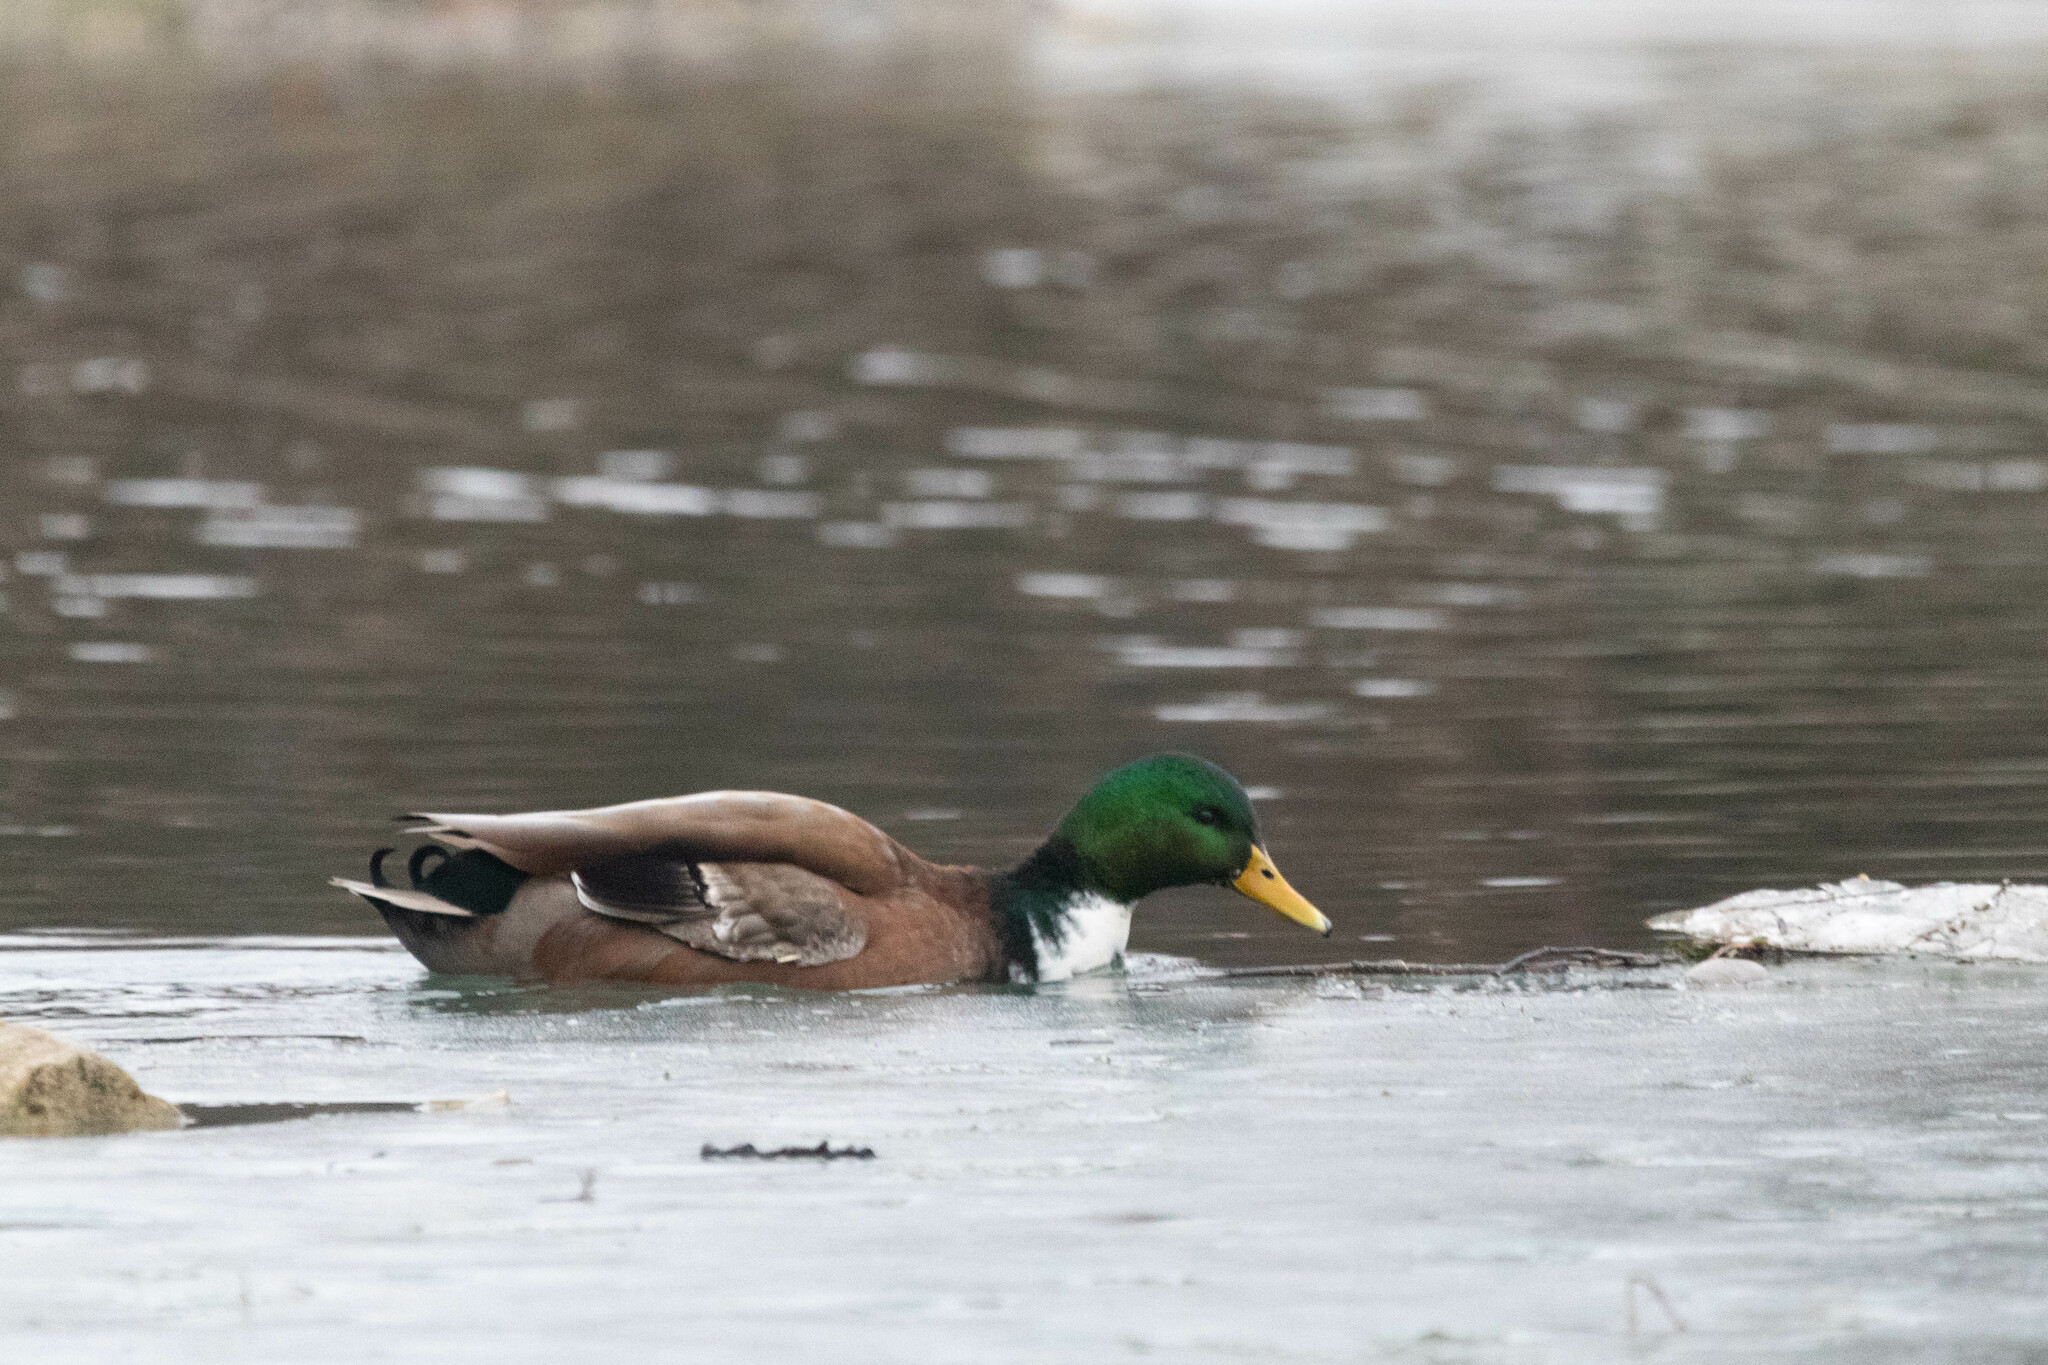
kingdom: Animalia
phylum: Chordata
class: Aves
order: Anseriformes
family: Anatidae
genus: Anas
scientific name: Anas platyrhynchos
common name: Mallard
